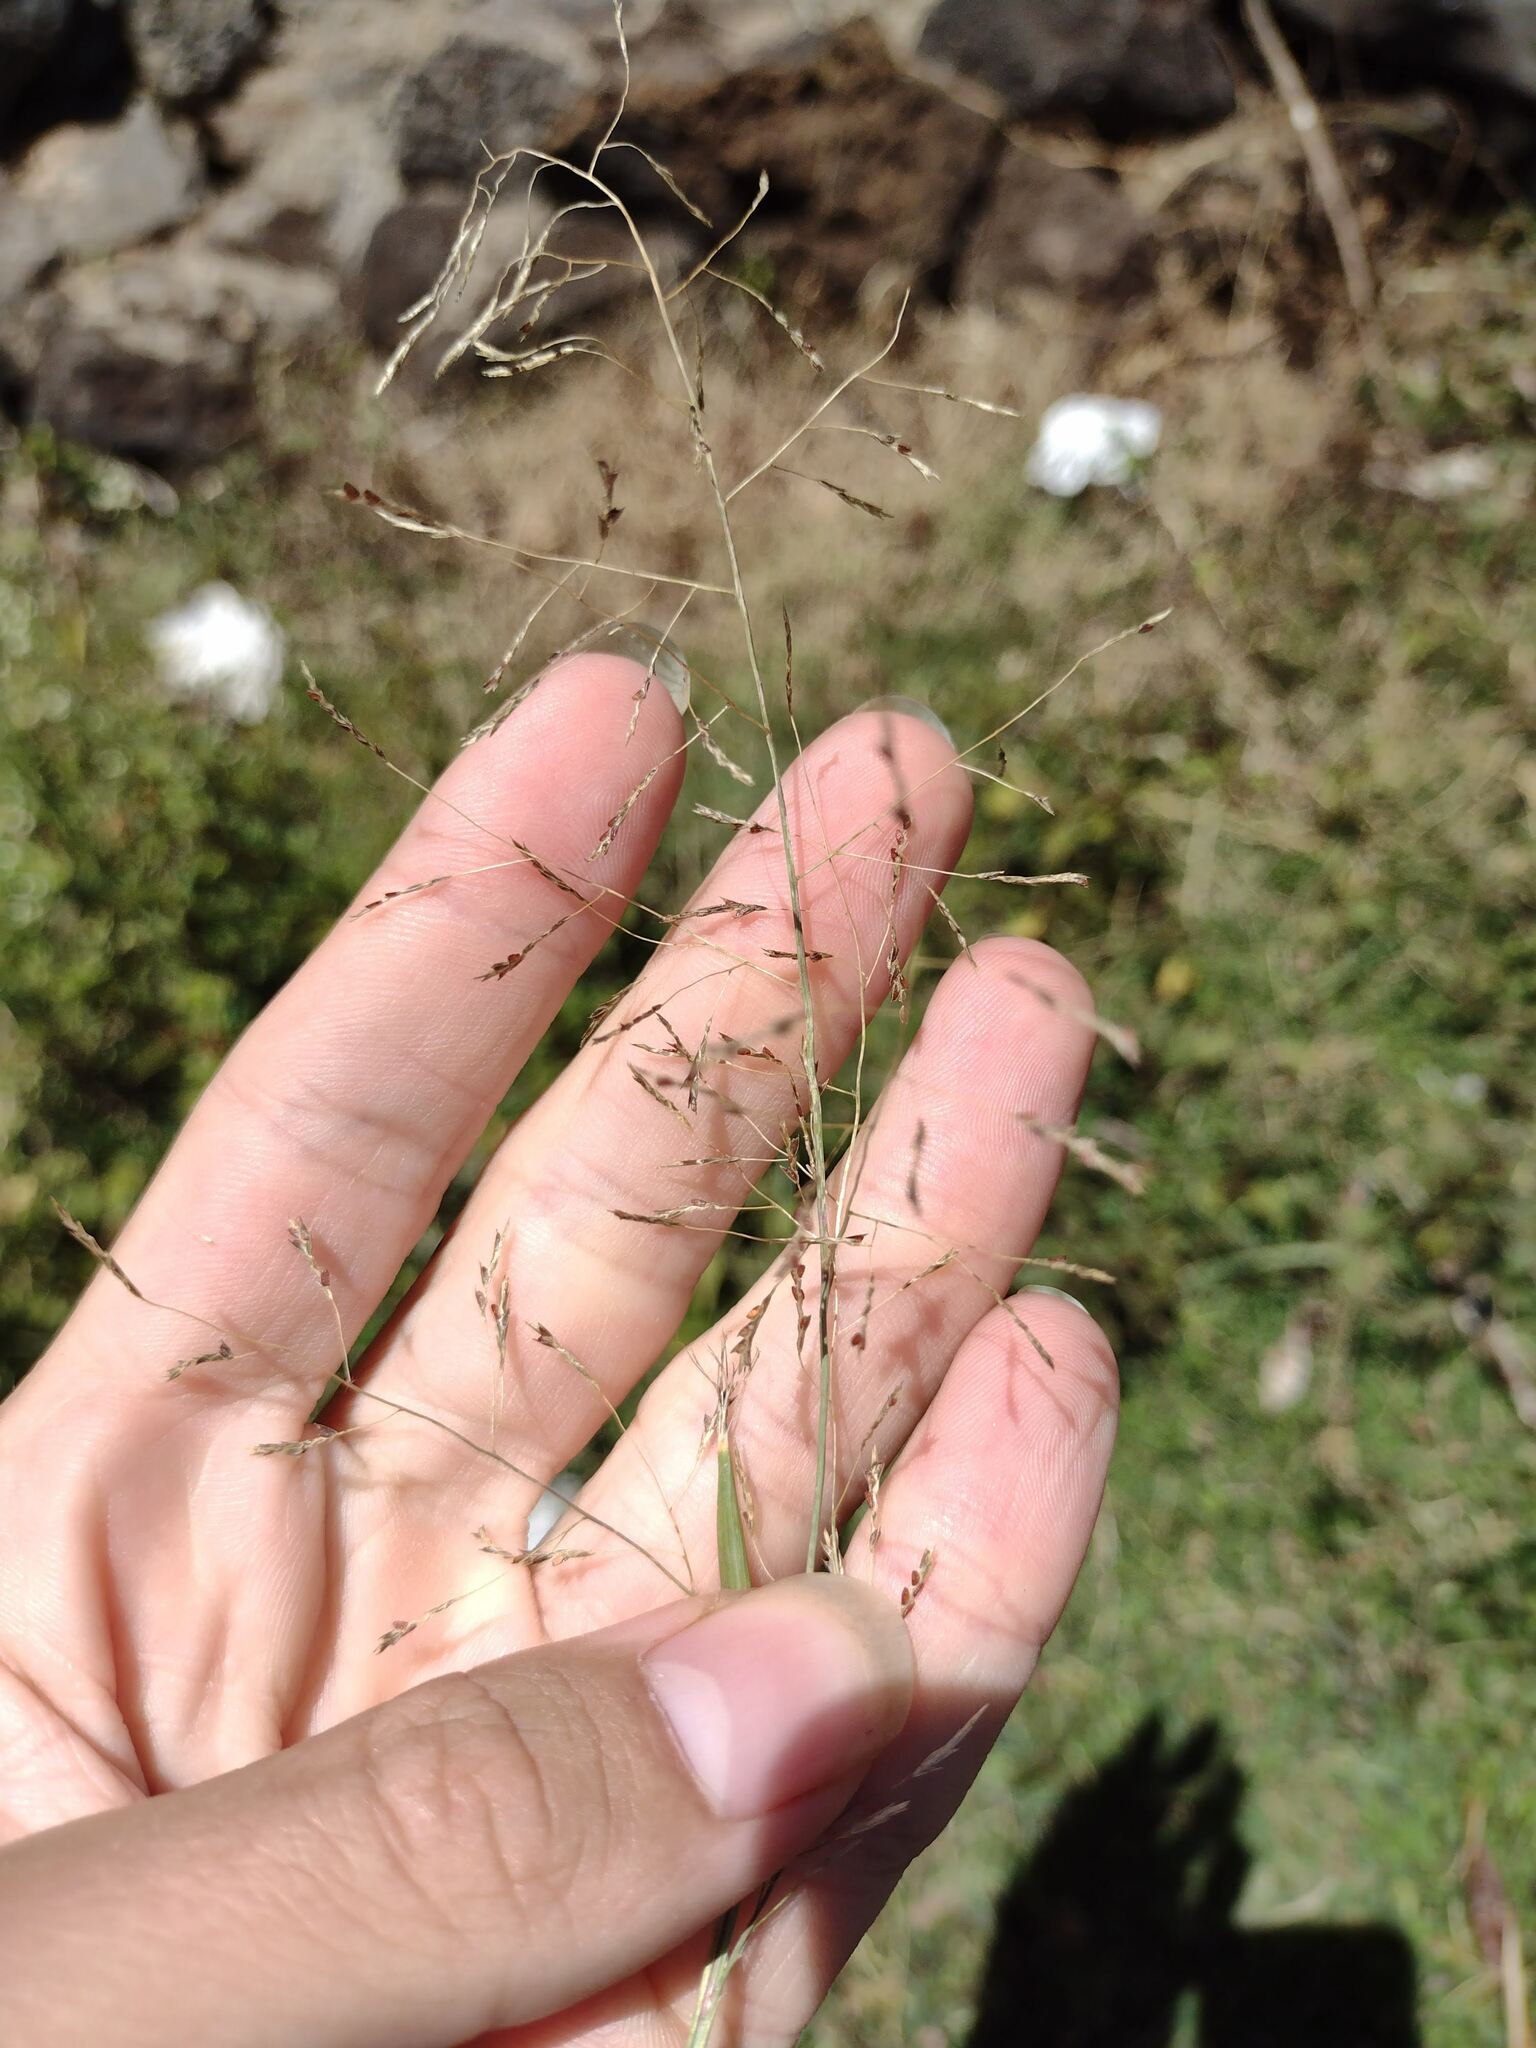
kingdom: Plantae
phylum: Tracheophyta
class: Liliopsida
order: Poales
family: Poaceae
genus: Eragrostis
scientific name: Eragrostis tenuifolia
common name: Elastic grass
